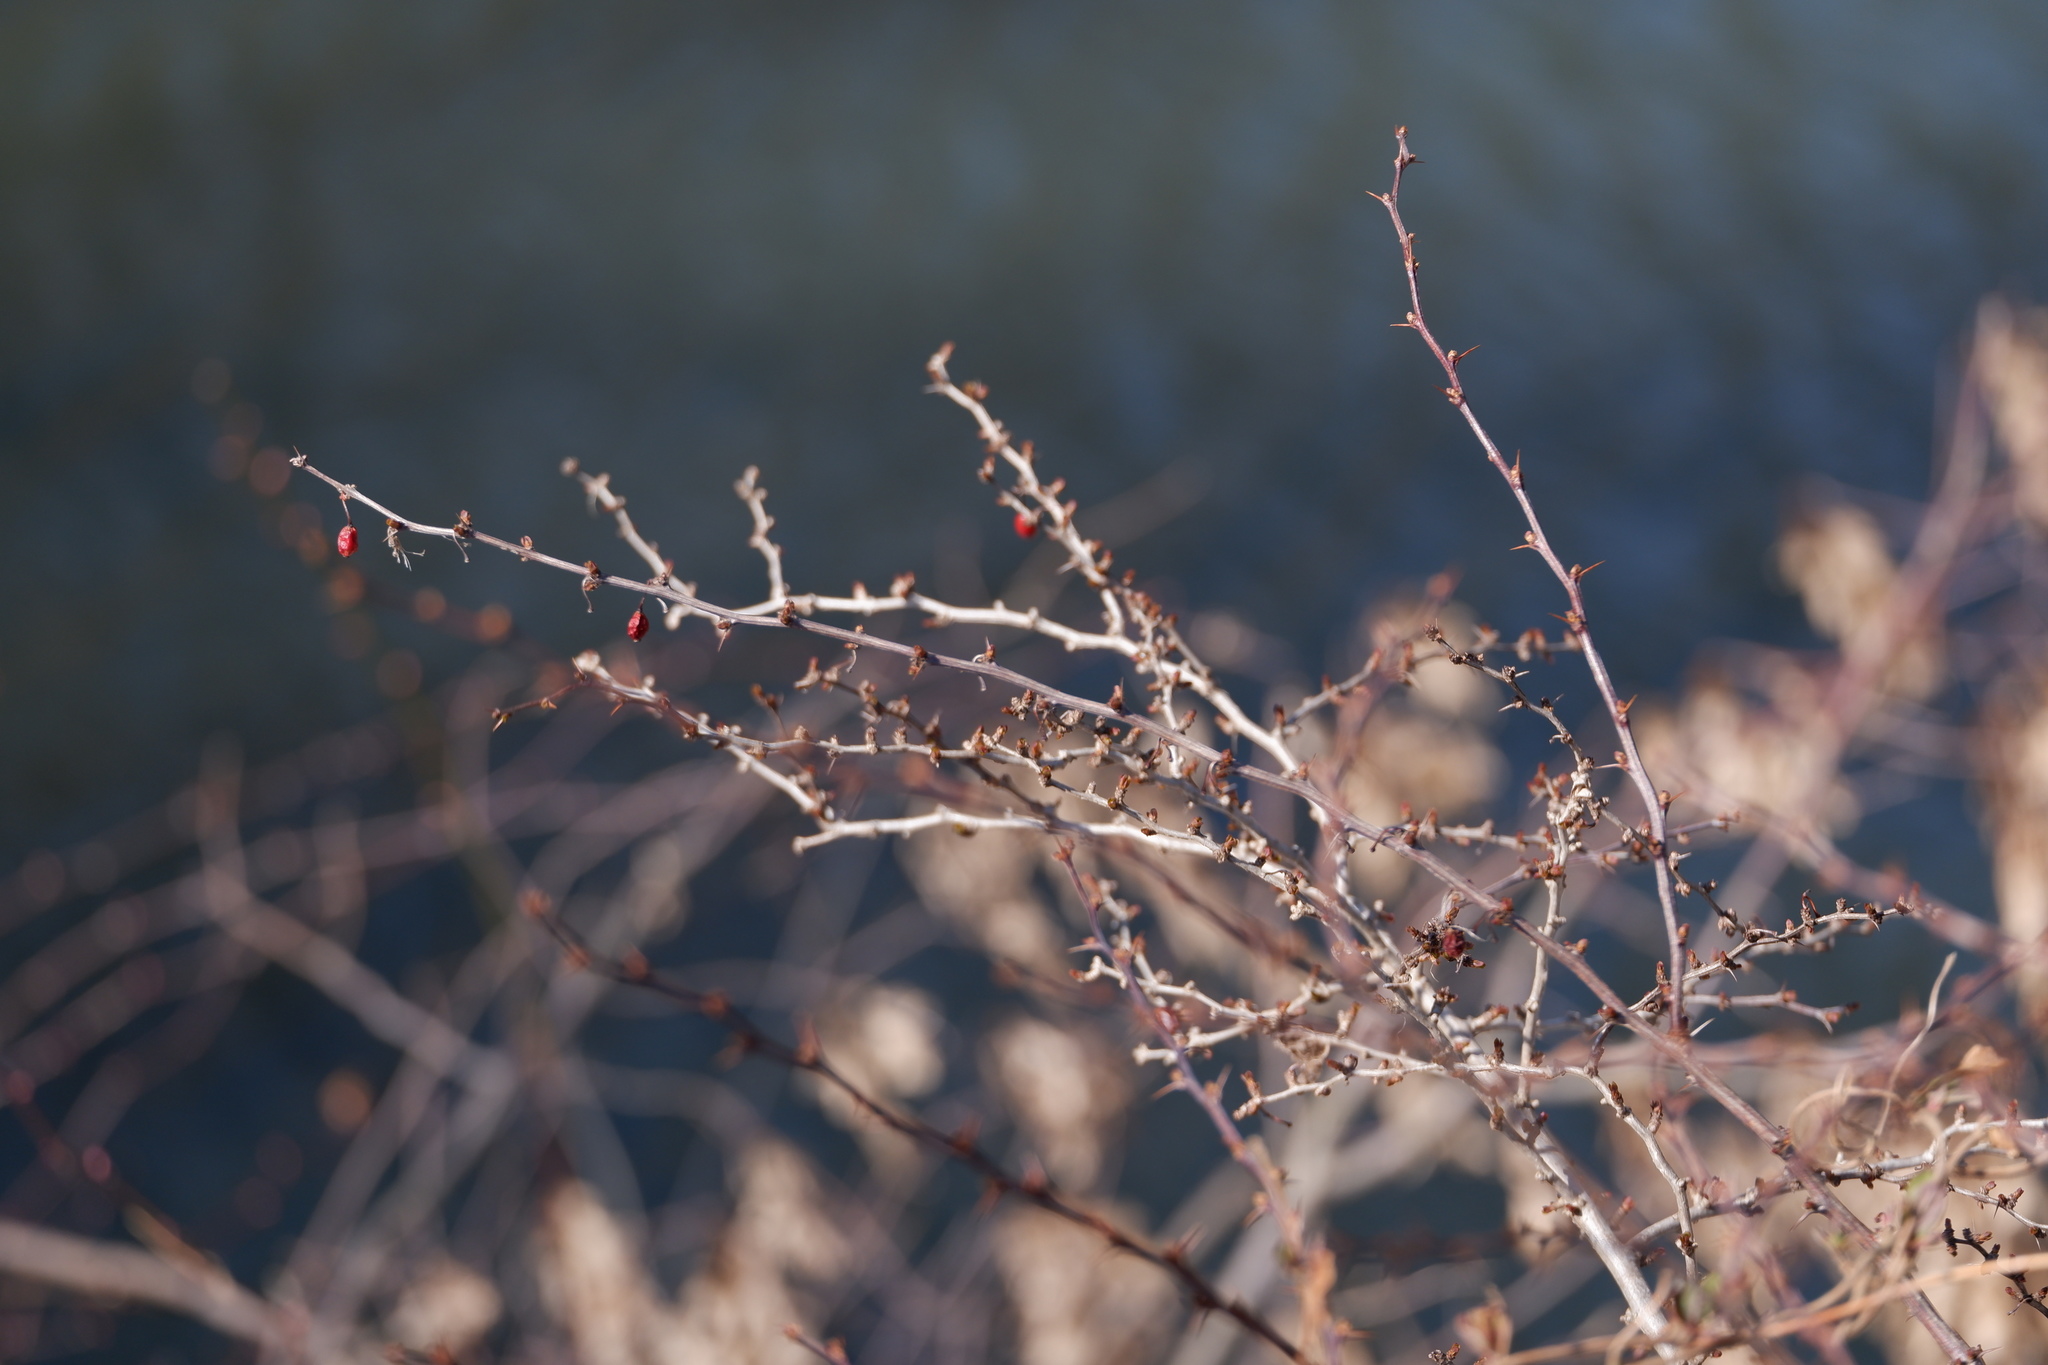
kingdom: Plantae
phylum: Tracheophyta
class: Magnoliopsida
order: Ranunculales
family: Berberidaceae
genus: Berberis
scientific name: Berberis thunbergii
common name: Japanese barberry
